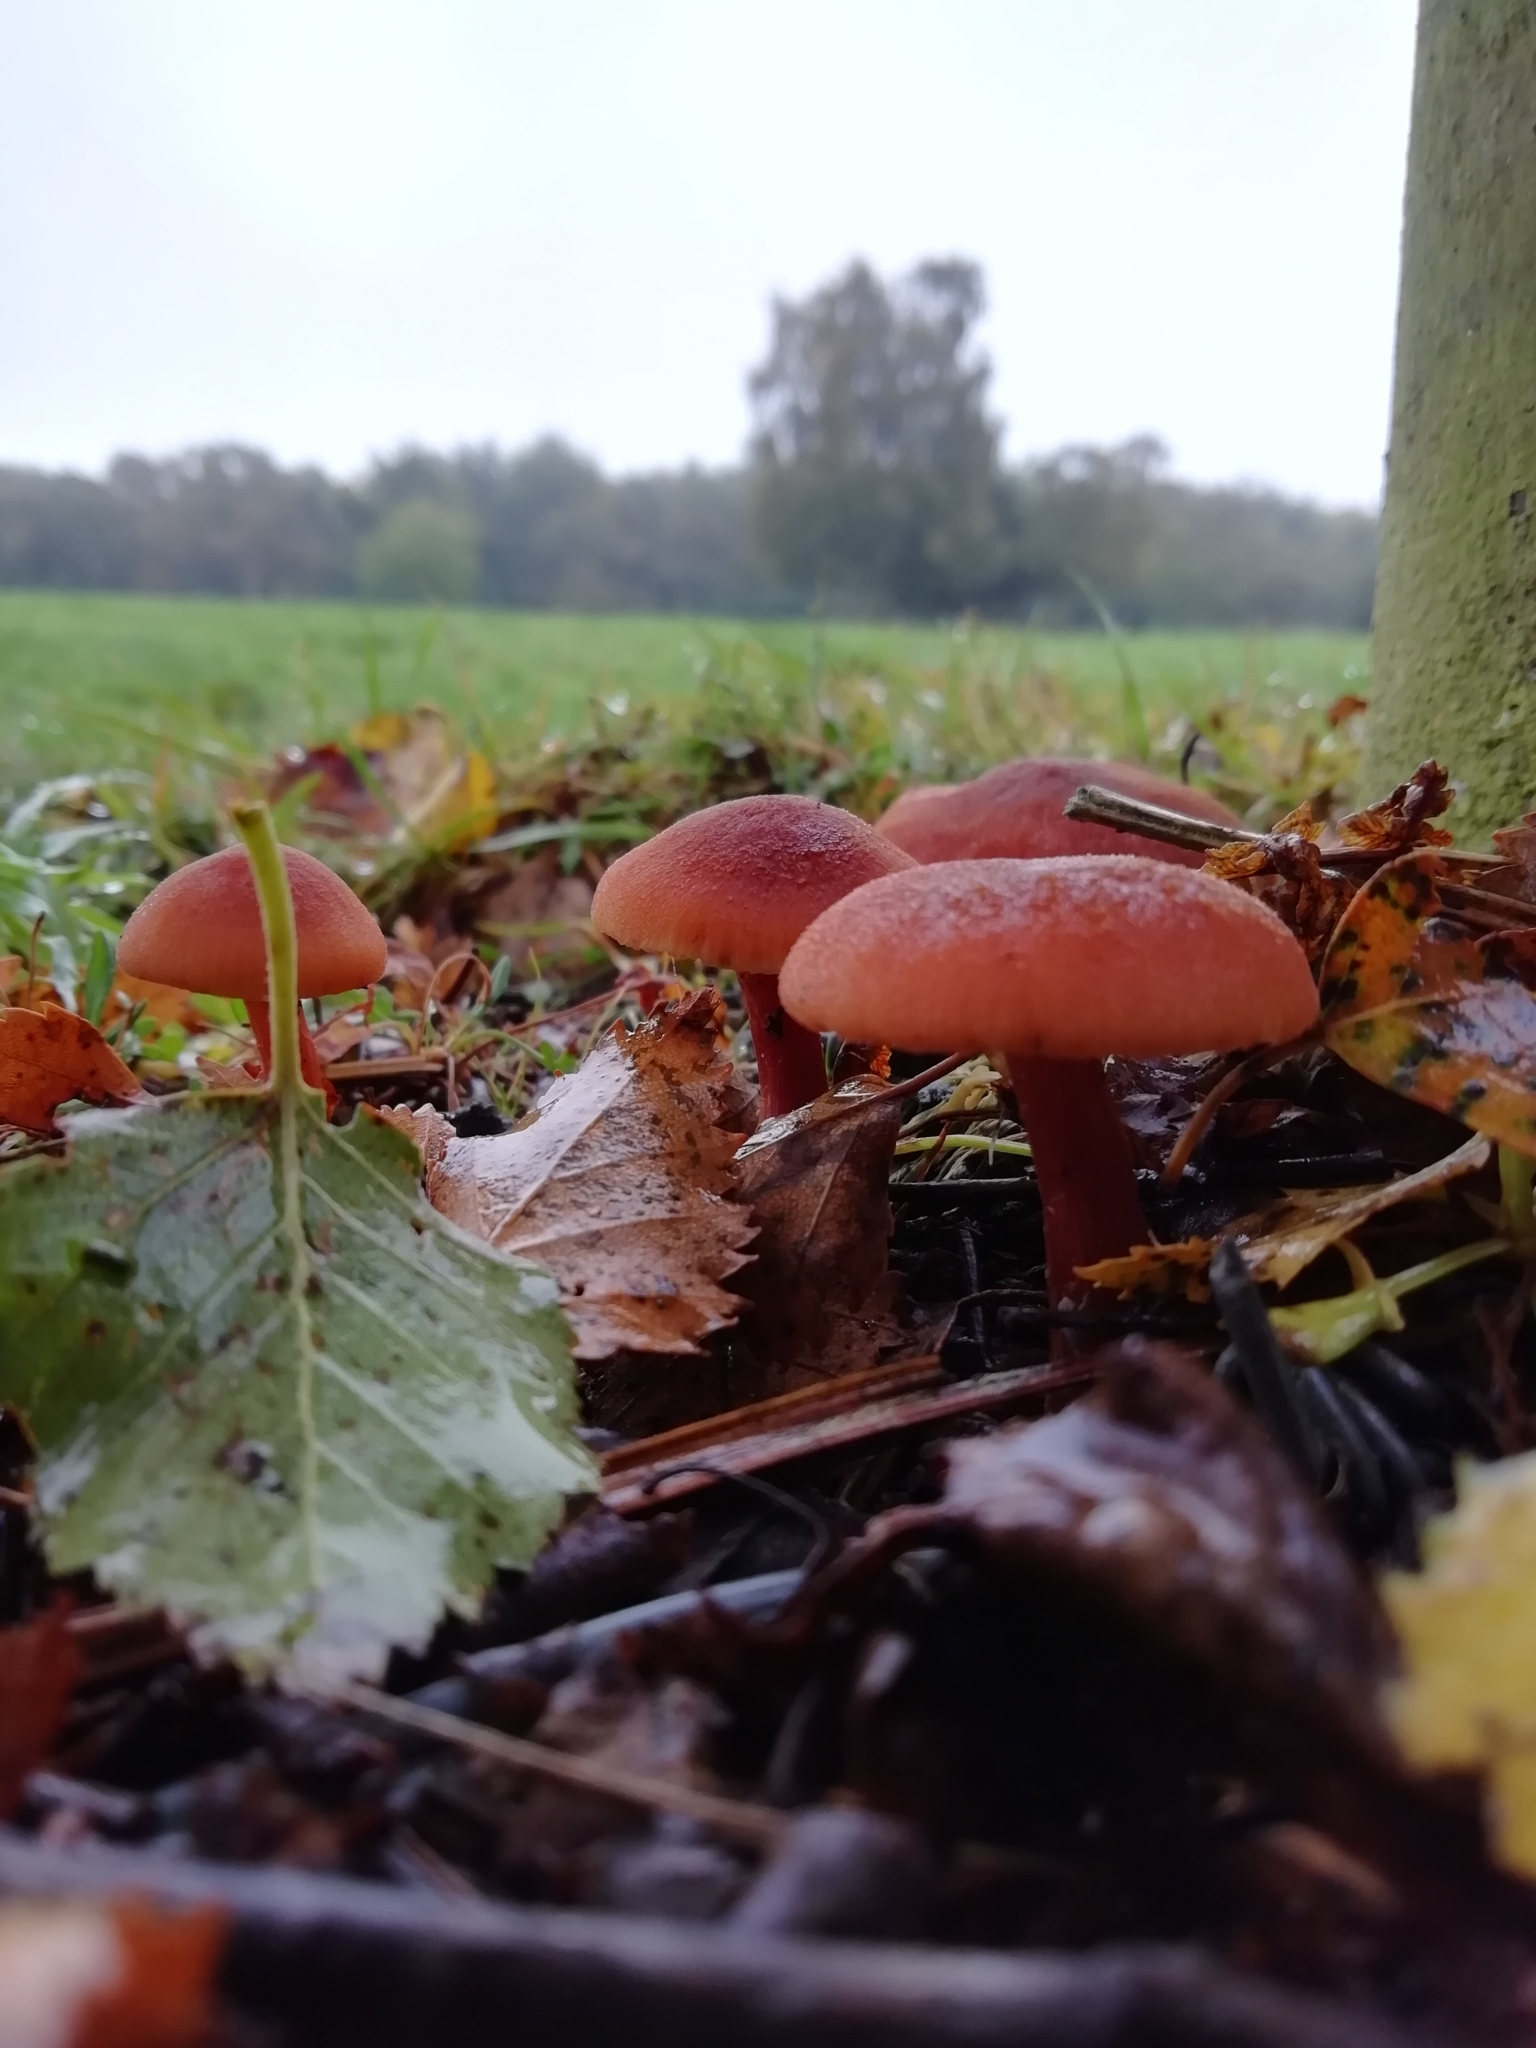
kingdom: Fungi
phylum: Basidiomycota
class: Agaricomycetes
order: Agaricales
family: Hydnangiaceae
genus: Laccaria
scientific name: Laccaria laccata
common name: Deceiver
